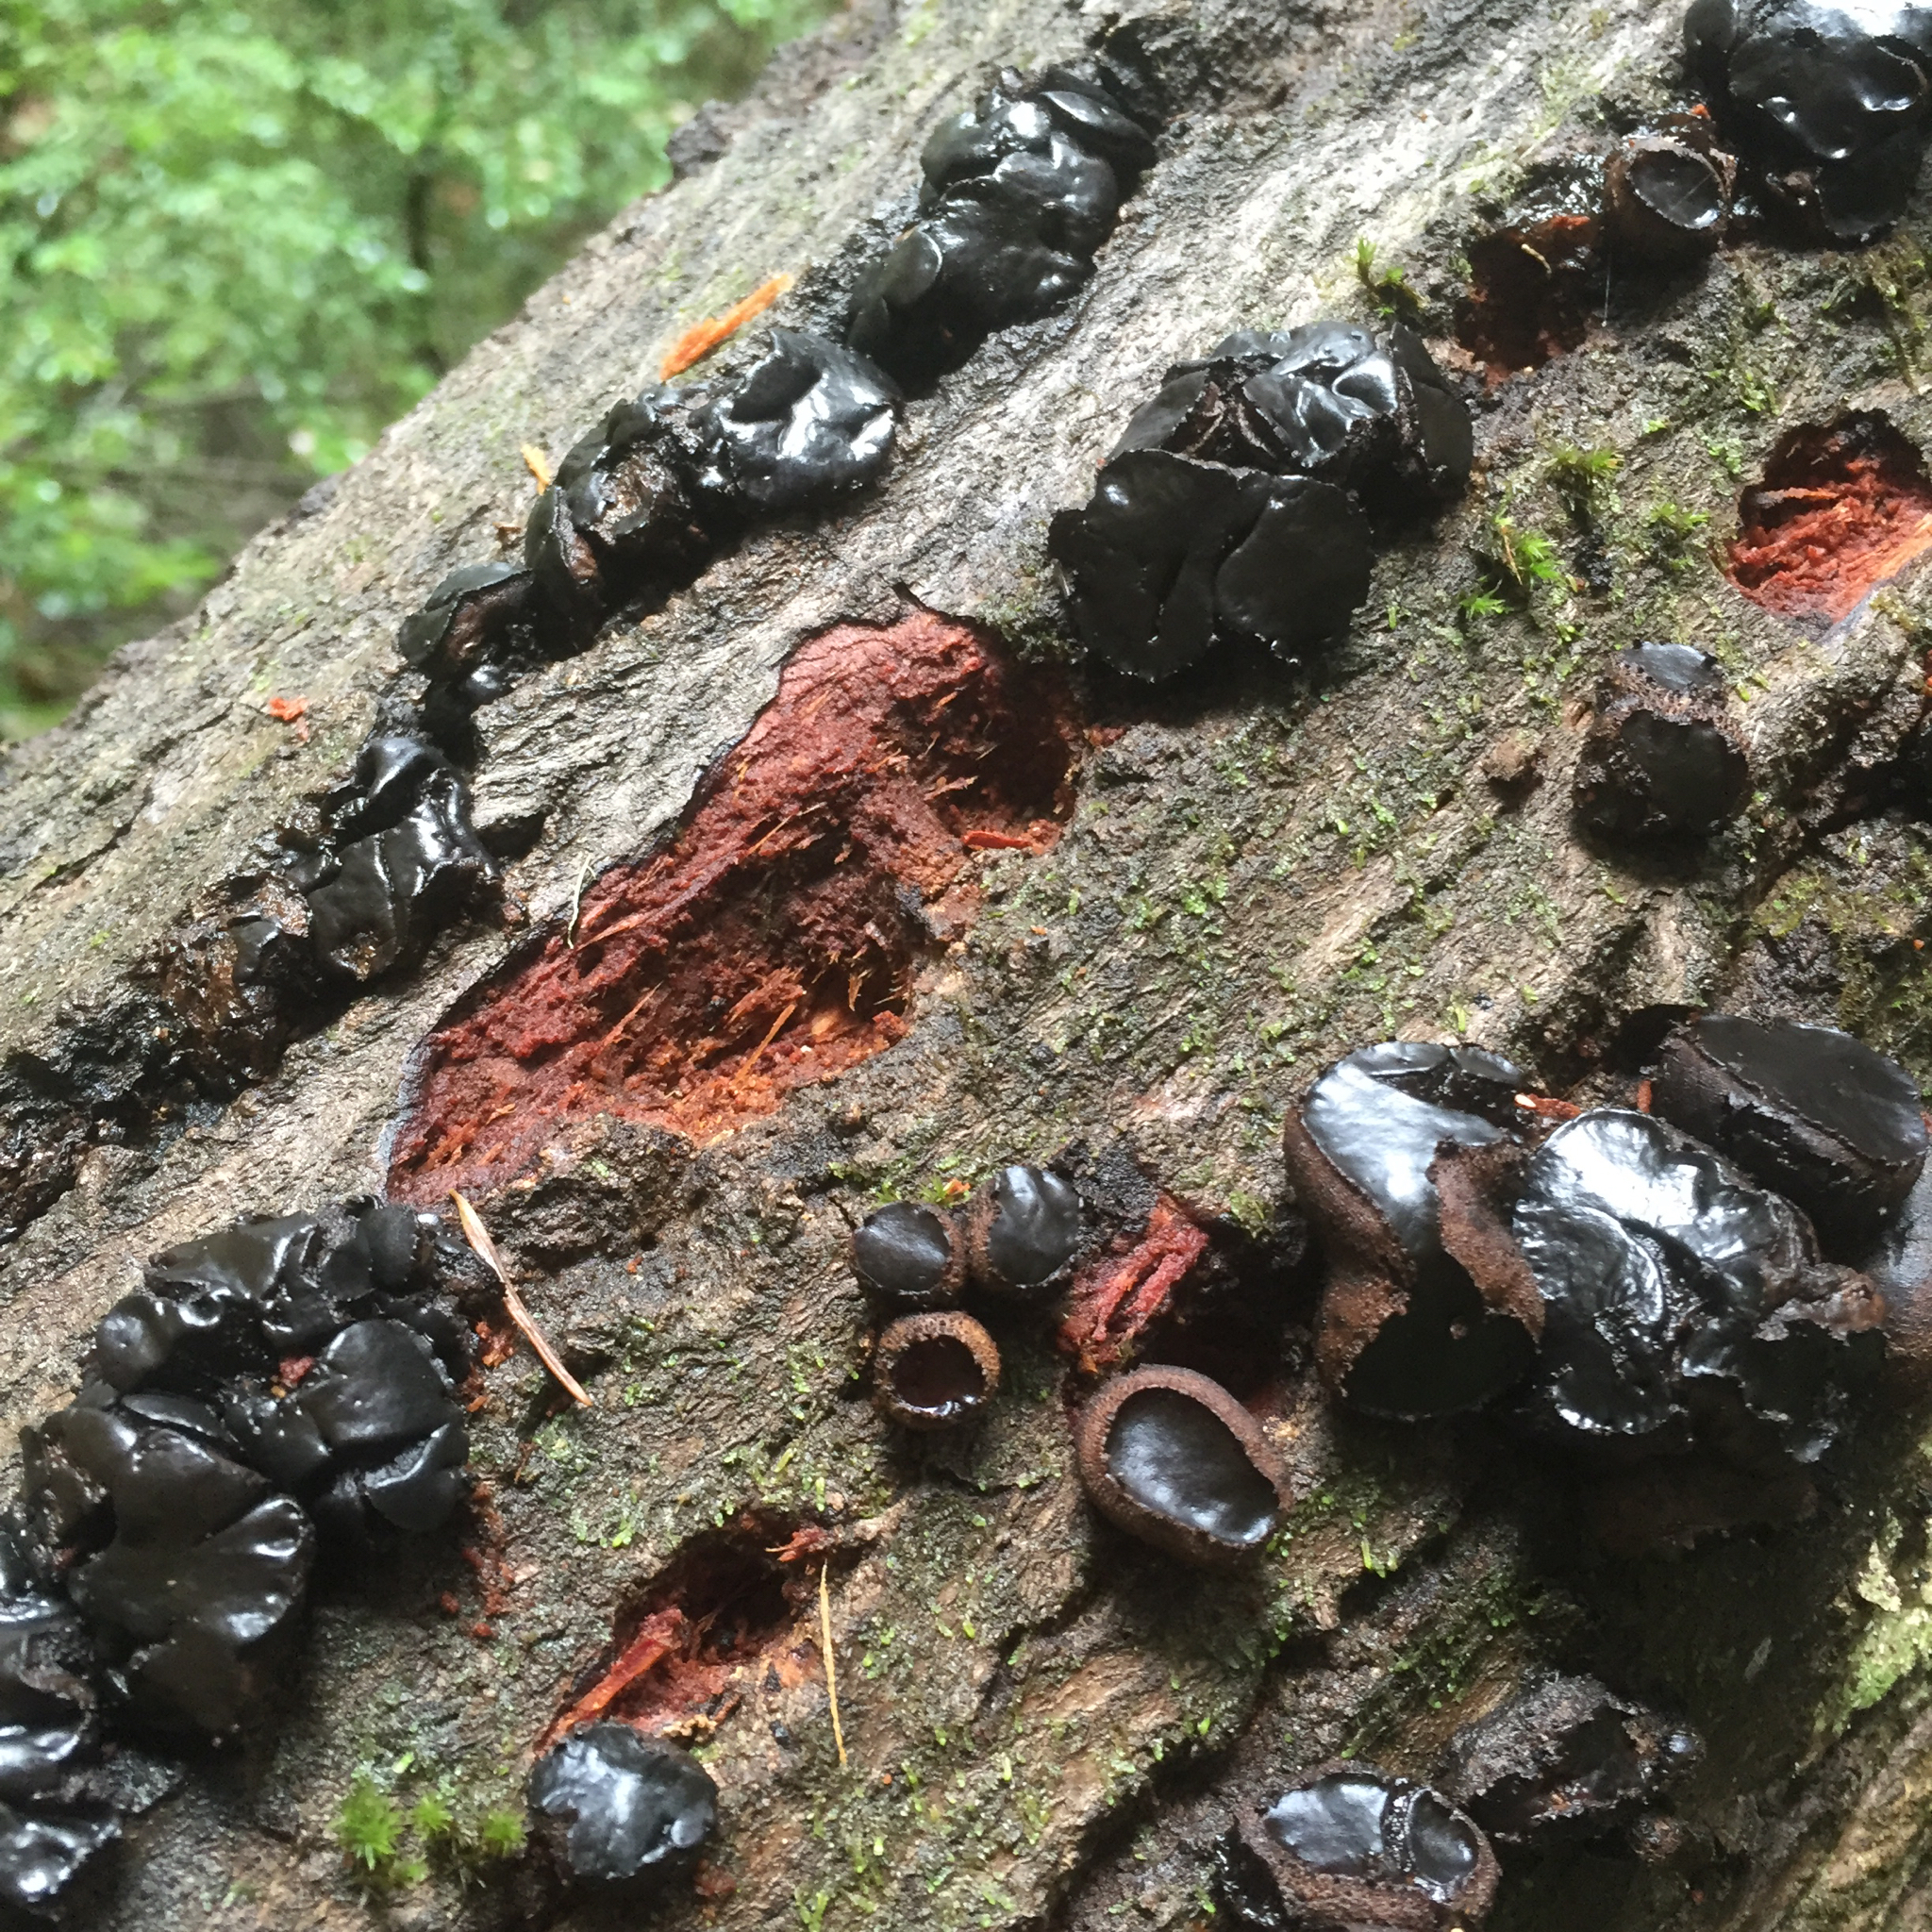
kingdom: Fungi
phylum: Ascomycota
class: Leotiomycetes
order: Phacidiales
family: Phacidiaceae
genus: Bulgaria
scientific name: Bulgaria inquinans
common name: Black bulgar
